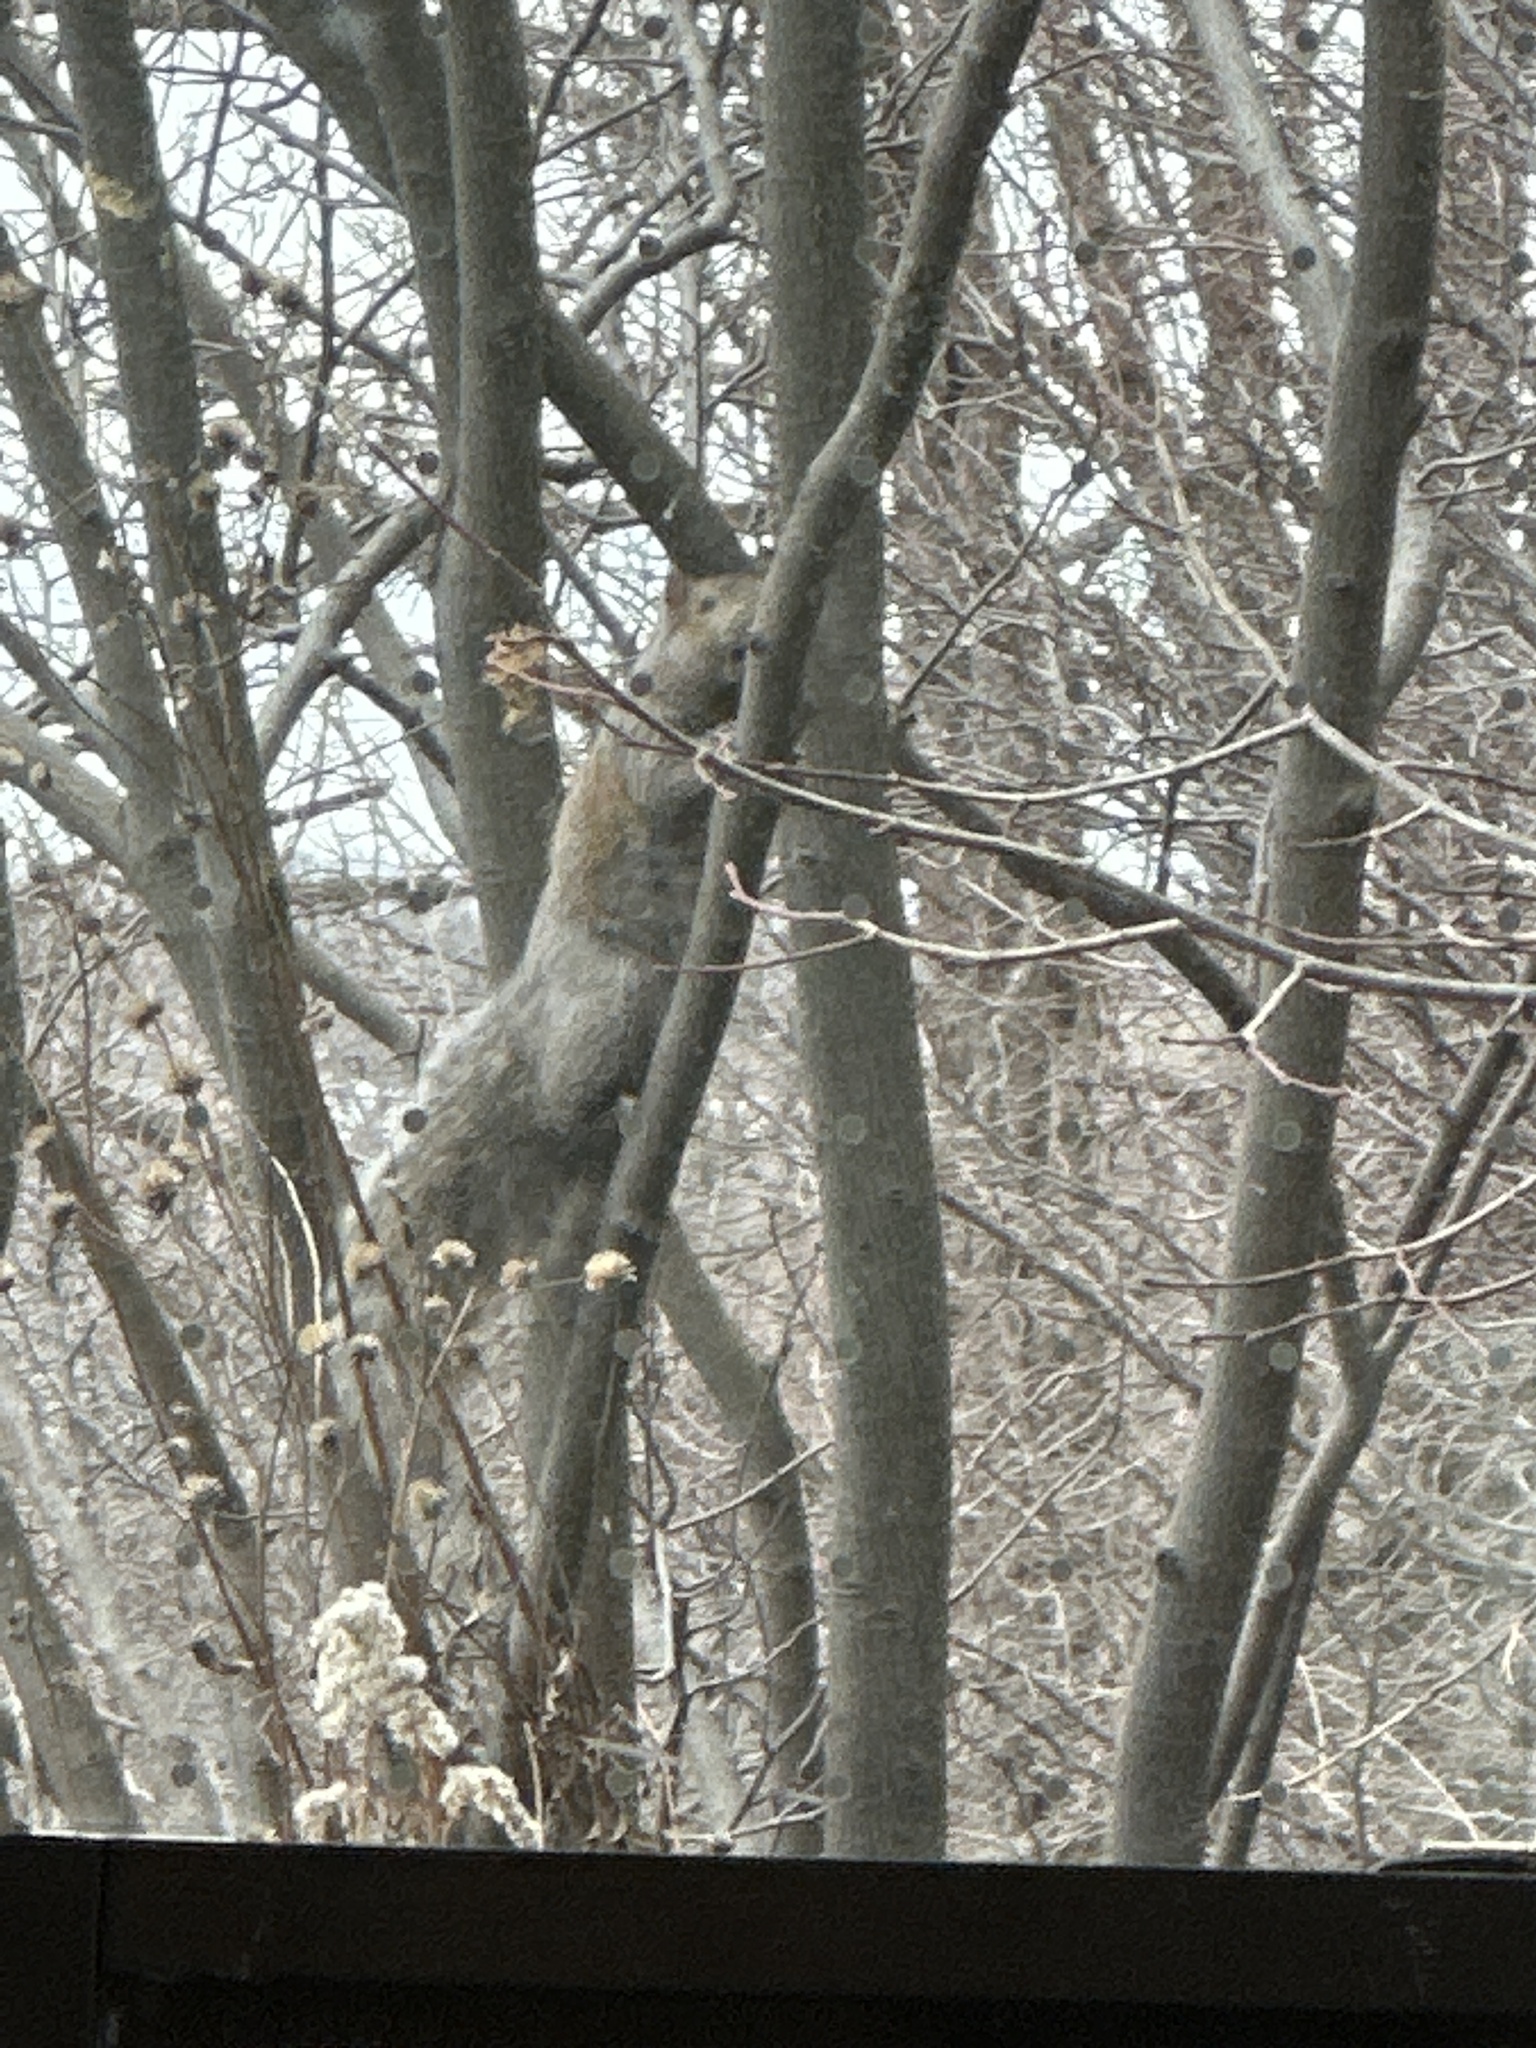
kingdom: Animalia
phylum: Chordata
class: Mammalia
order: Rodentia
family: Sciuridae
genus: Sciurus
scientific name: Sciurus carolinensis
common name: Eastern gray squirrel
